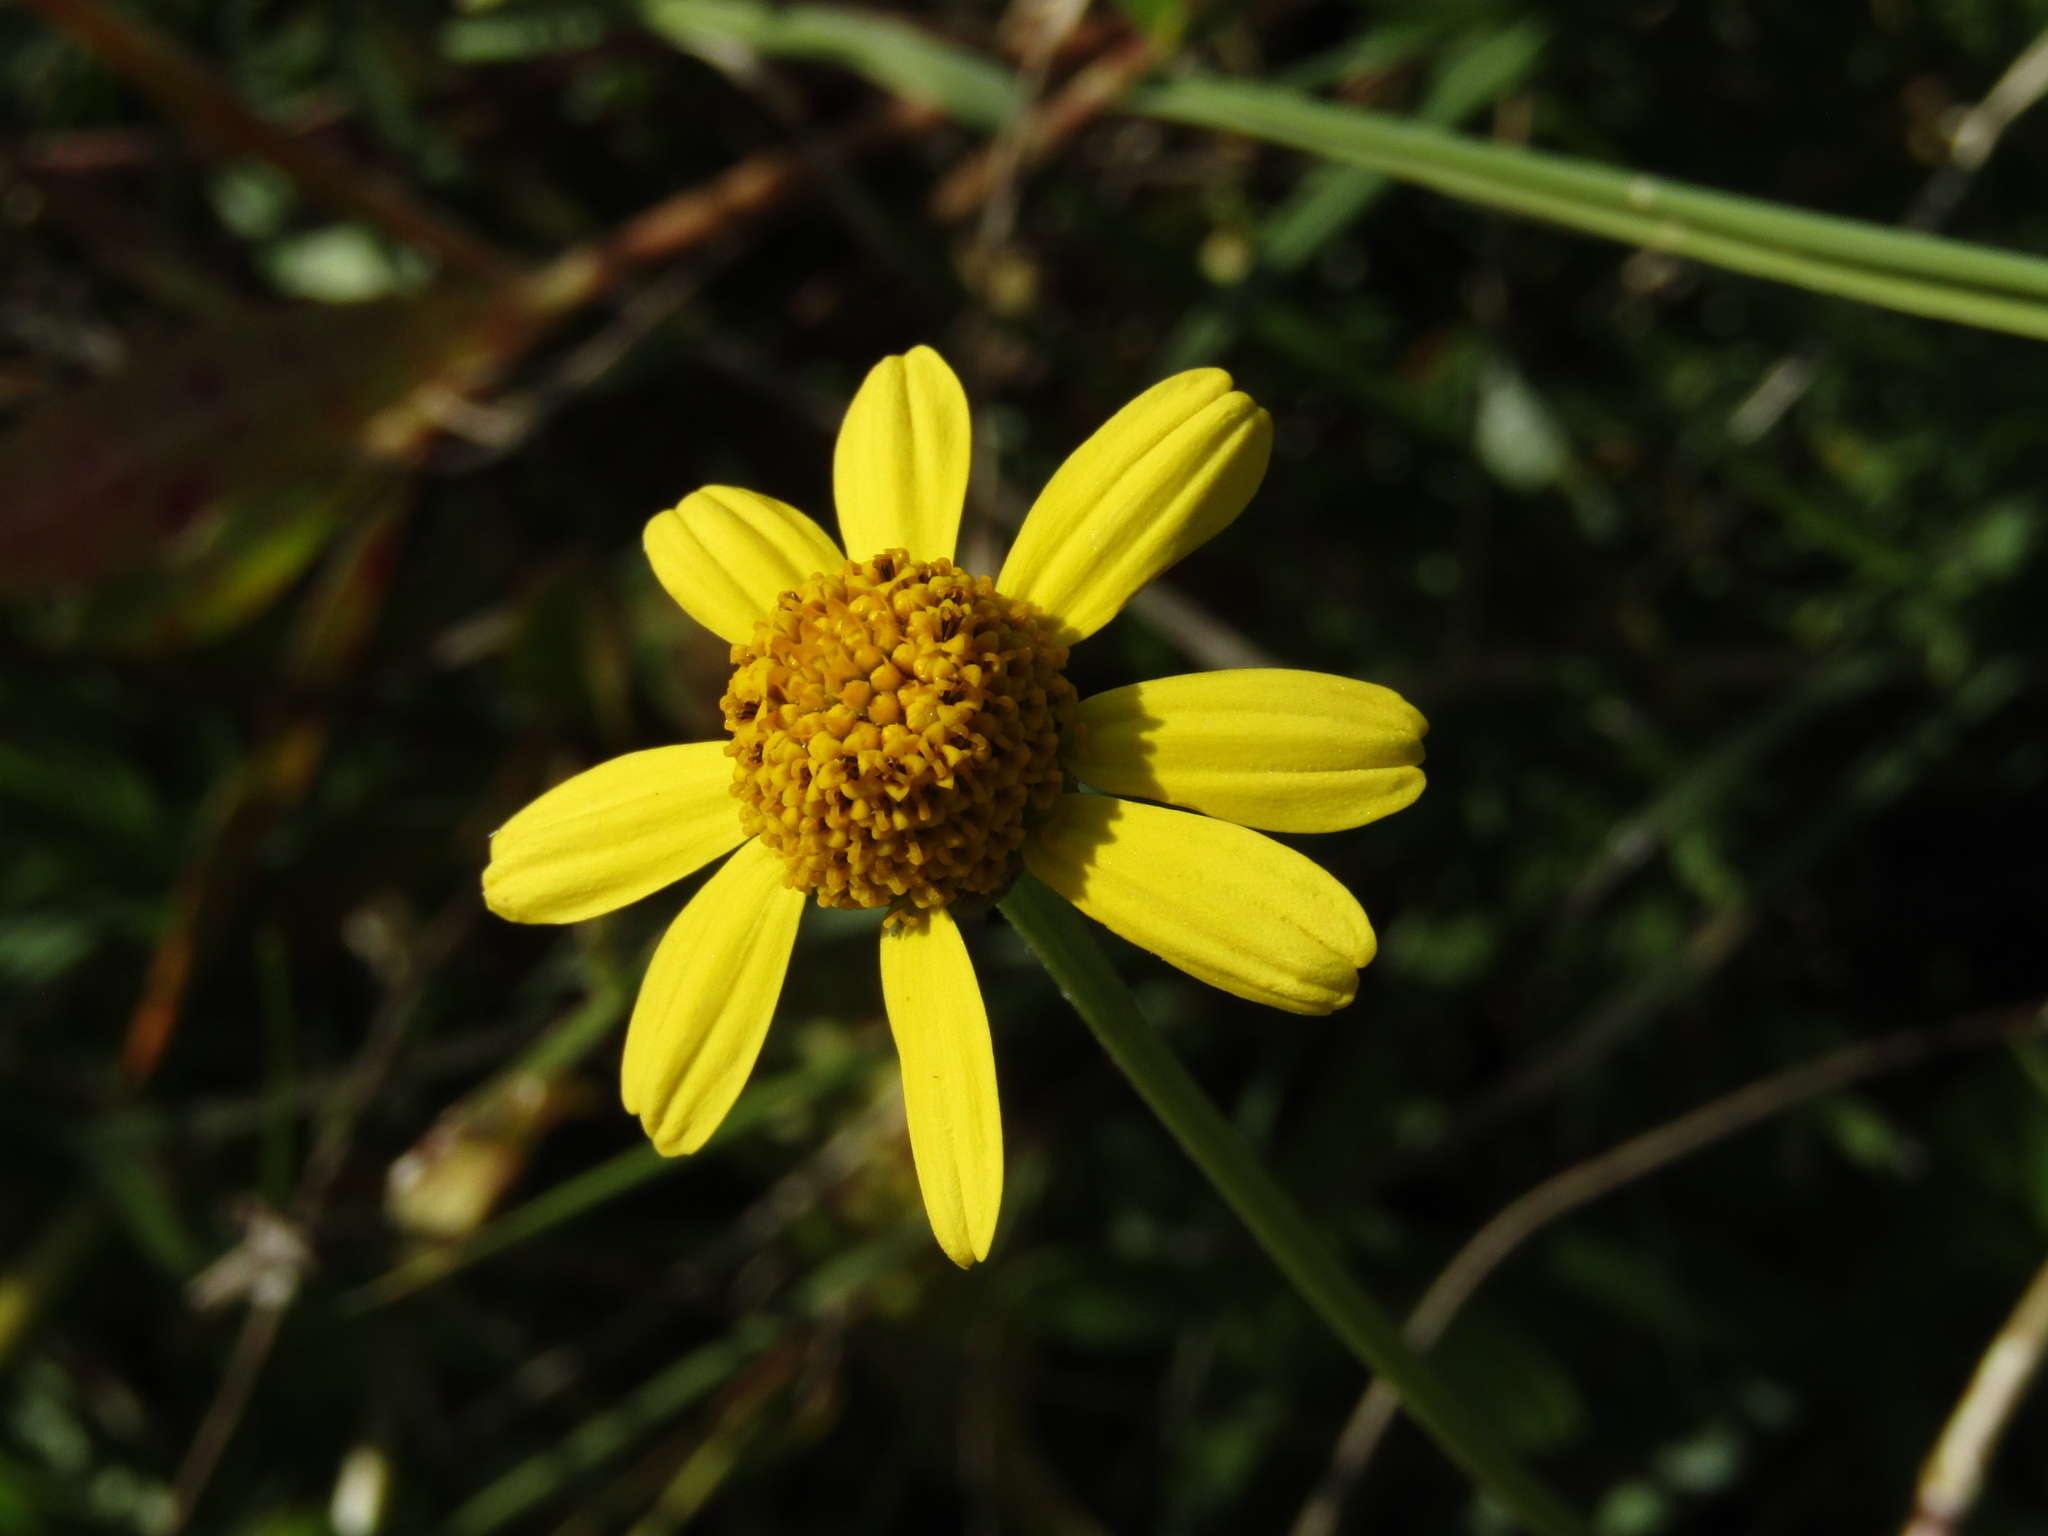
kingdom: Plantae
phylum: Tracheophyta
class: Magnoliopsida
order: Asterales
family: Asteraceae
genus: Acmella
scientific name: Acmella decumbens
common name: Creeping spotflower
